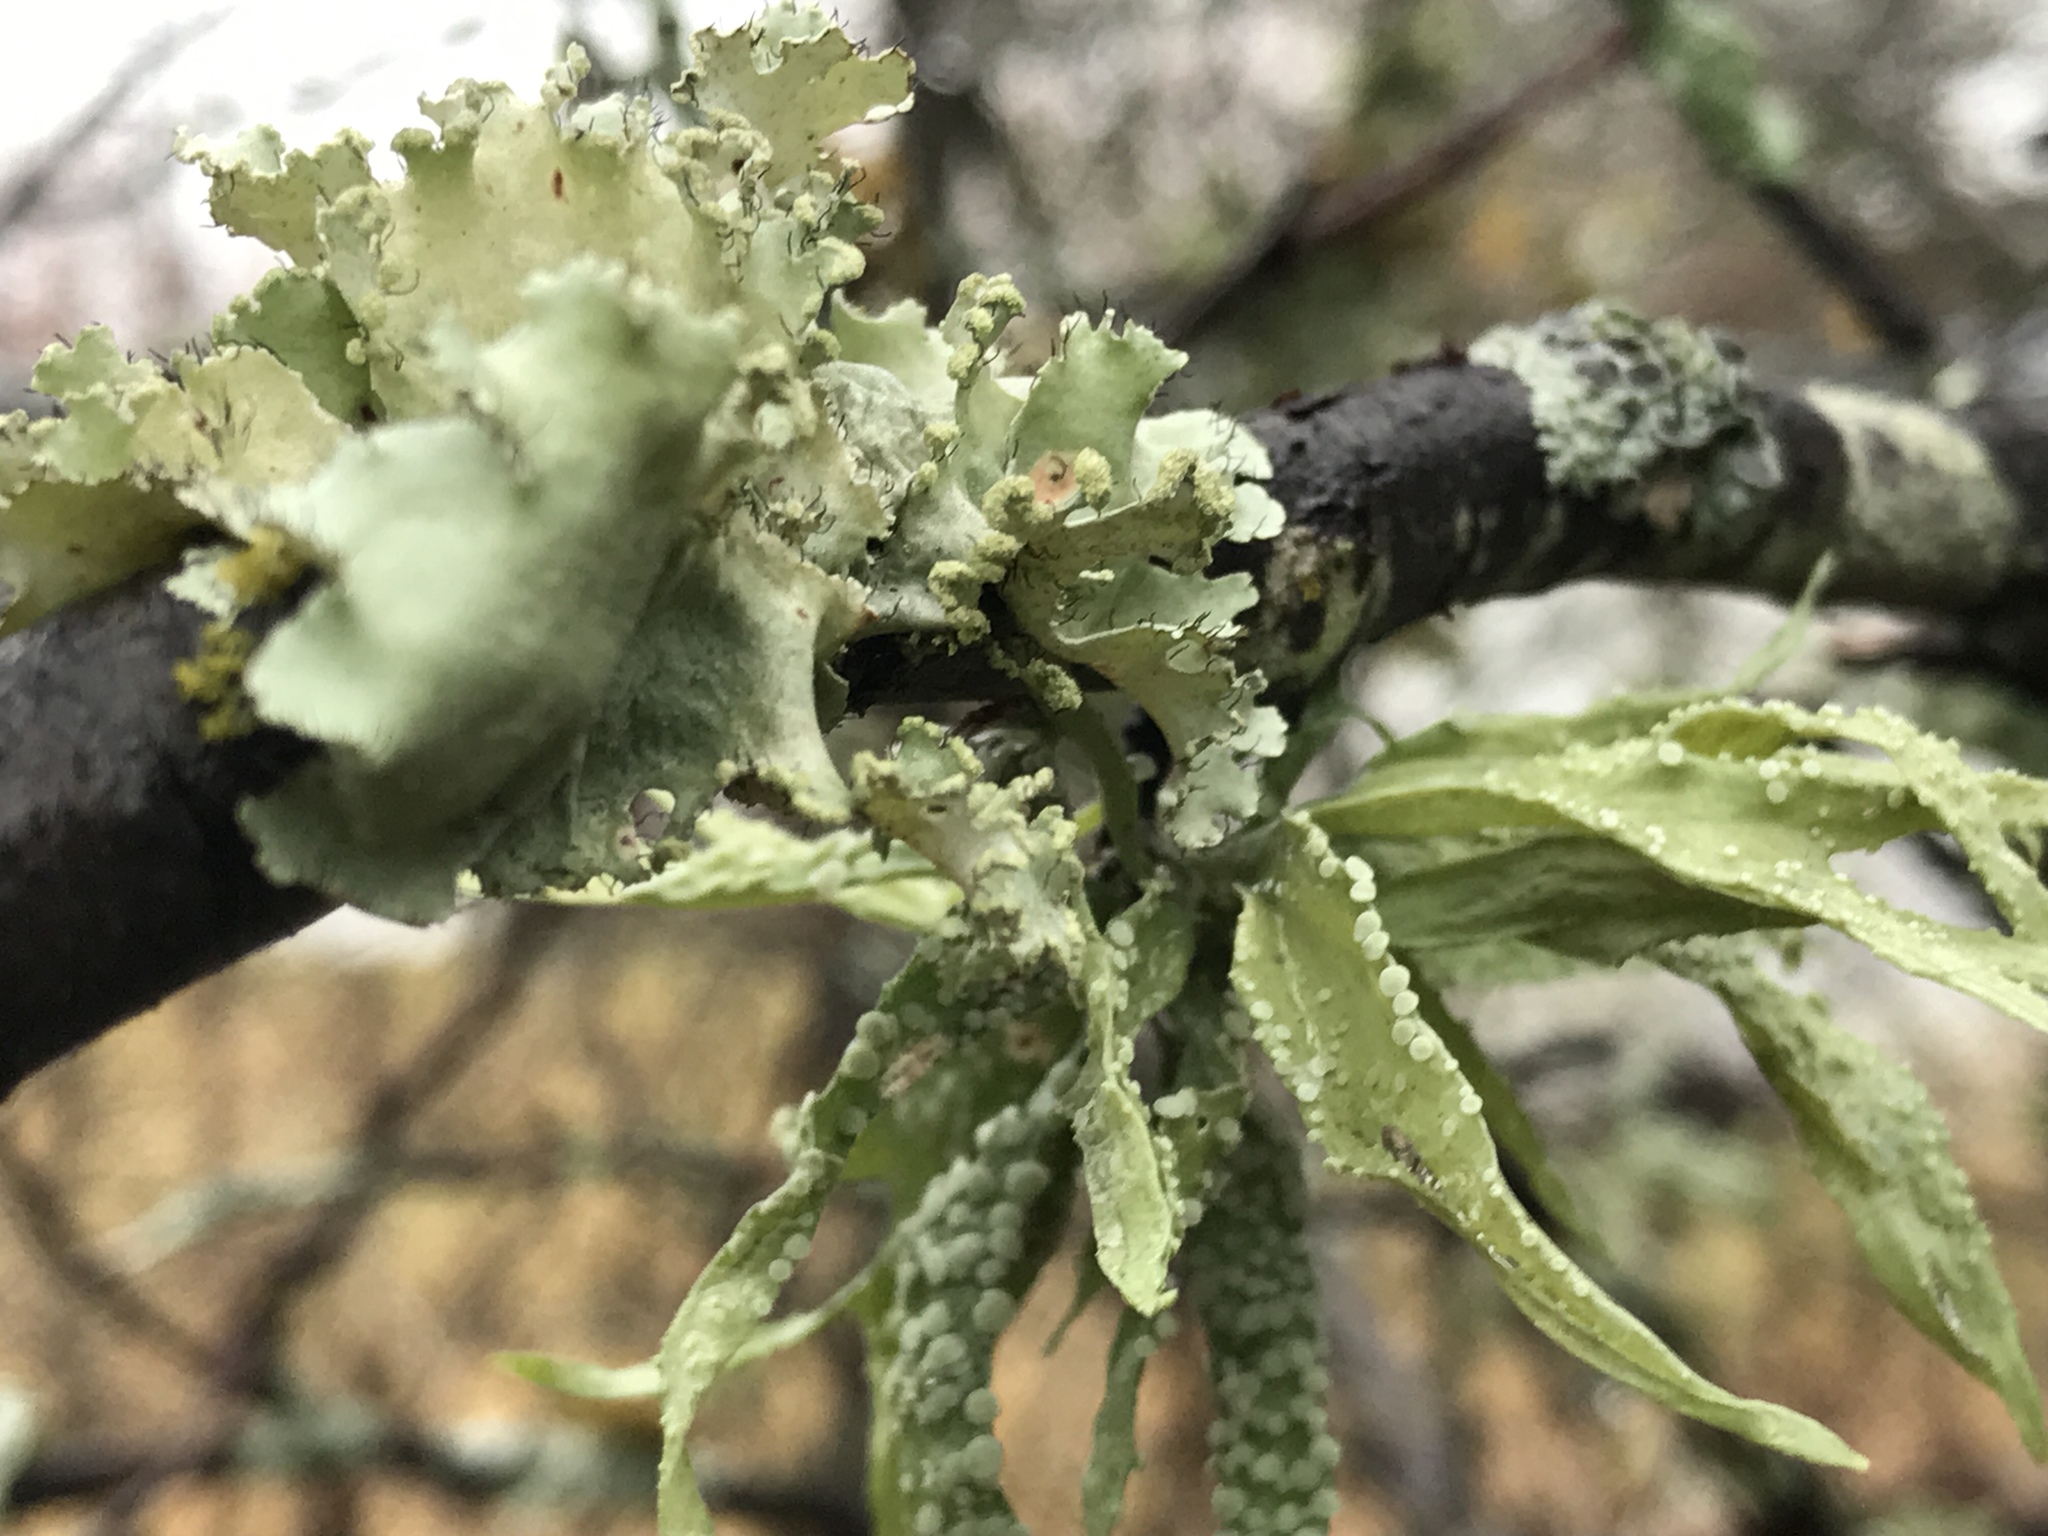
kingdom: Fungi
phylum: Ascomycota
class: Lecanoromycetes
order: Lecanorales
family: Ramalinaceae
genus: Ramalina
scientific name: Ramalina celastri
